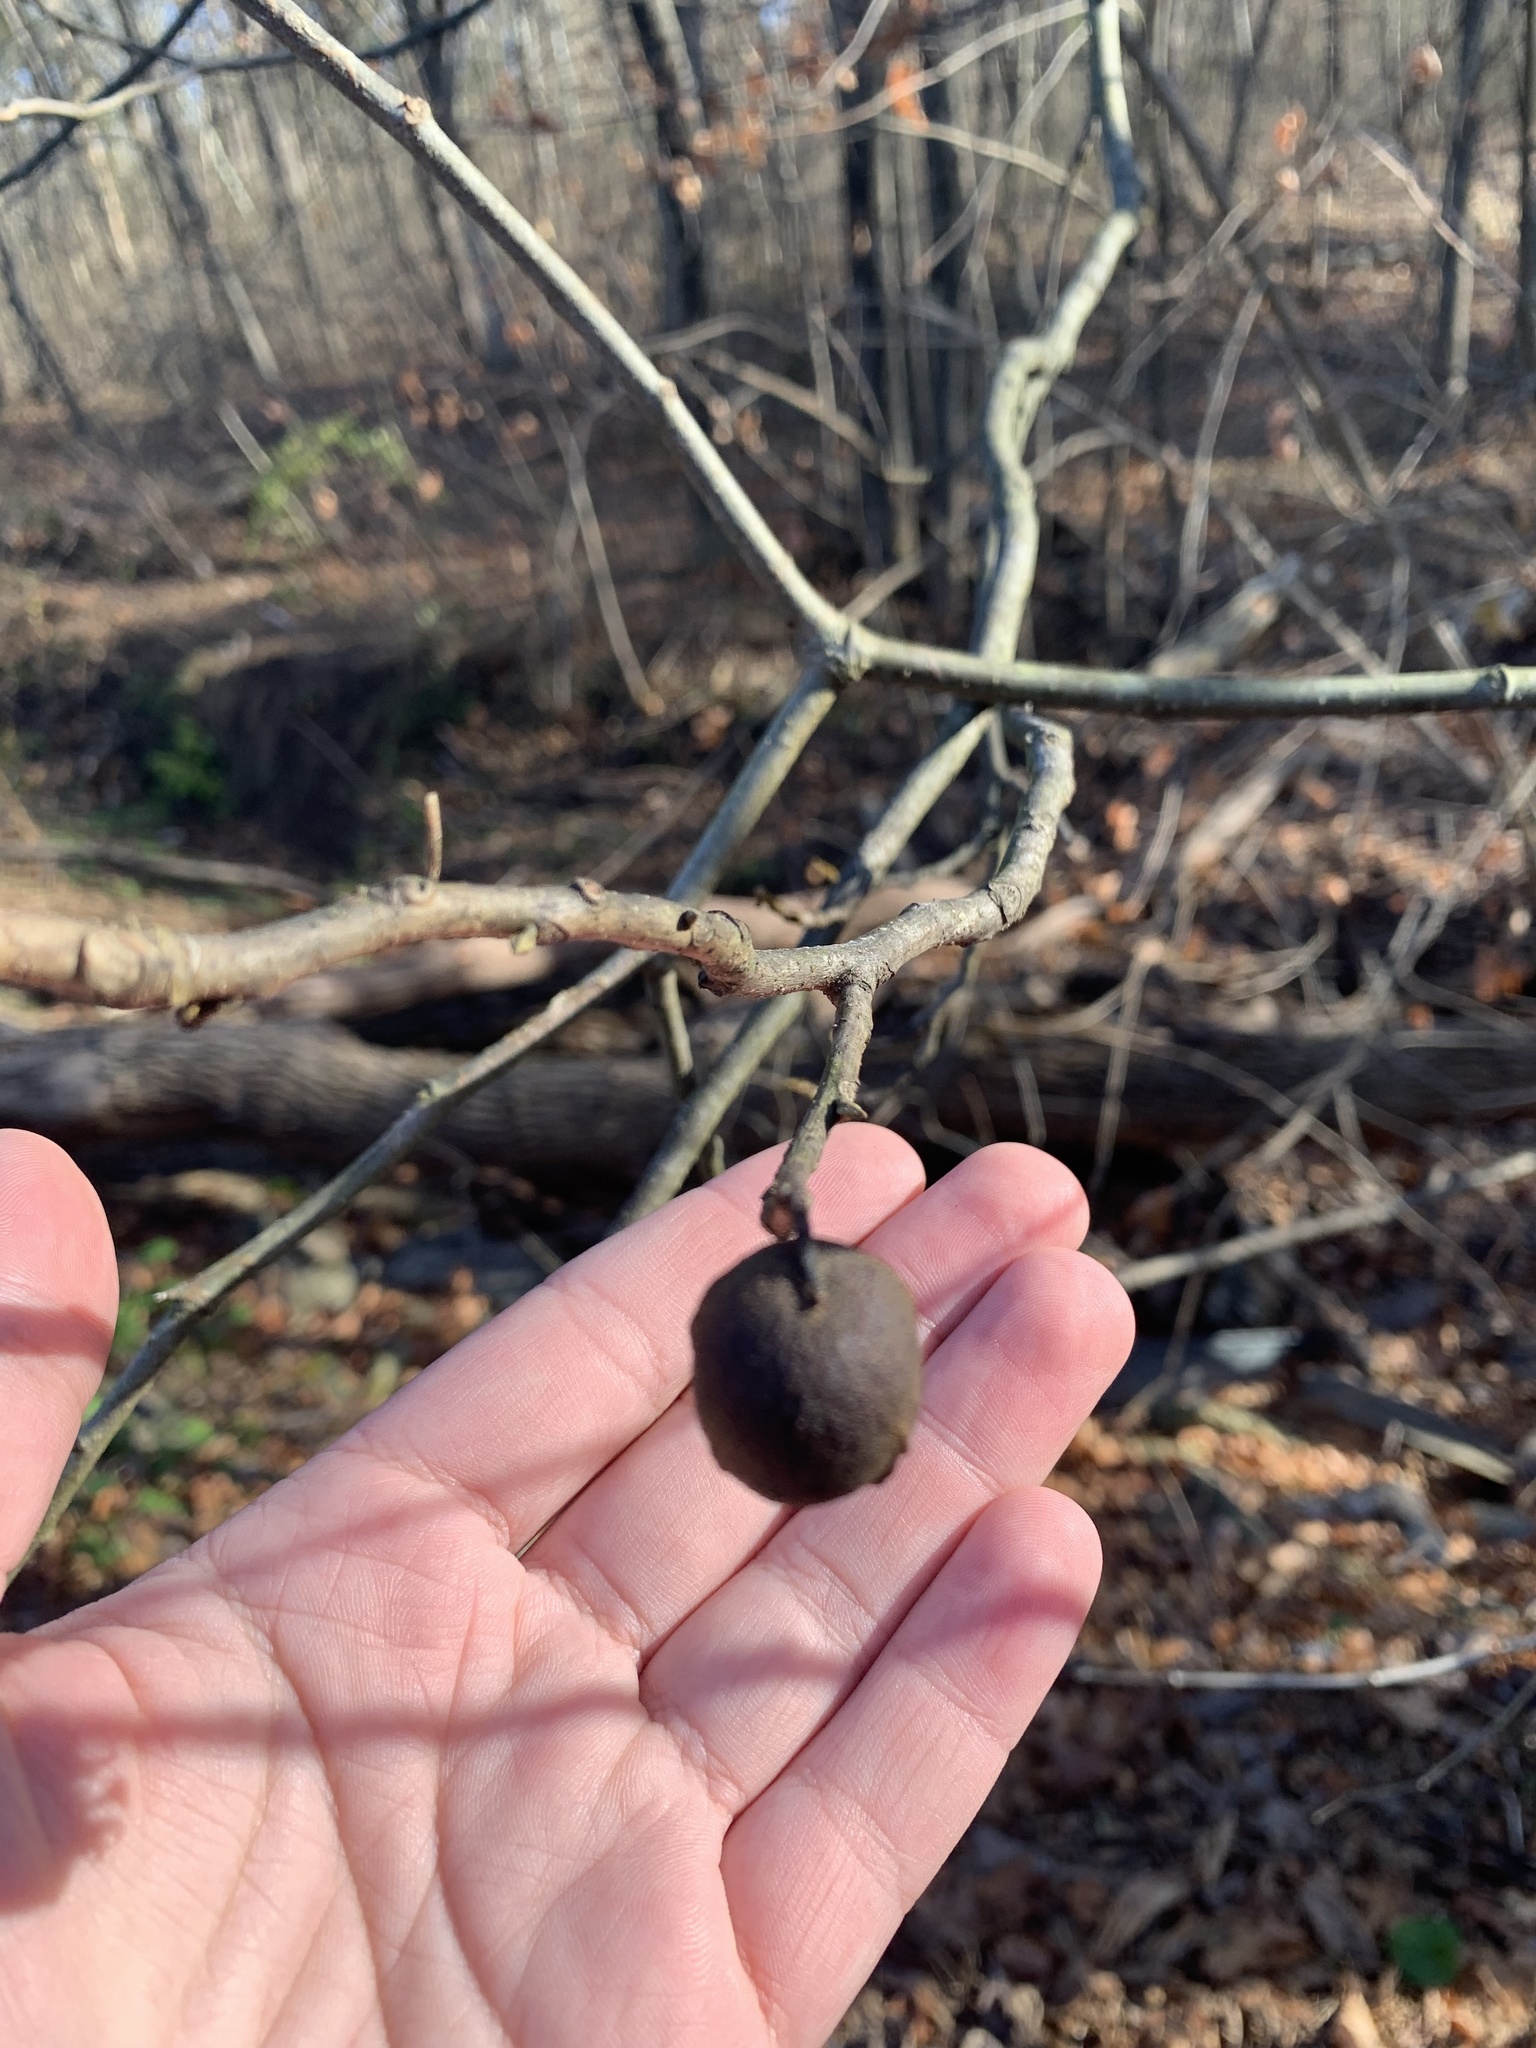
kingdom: Plantae
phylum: Tracheophyta
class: Magnoliopsida
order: Fagales
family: Juglandaceae
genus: Carya
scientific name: Carya cordiformis
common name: Bitternut hickory
